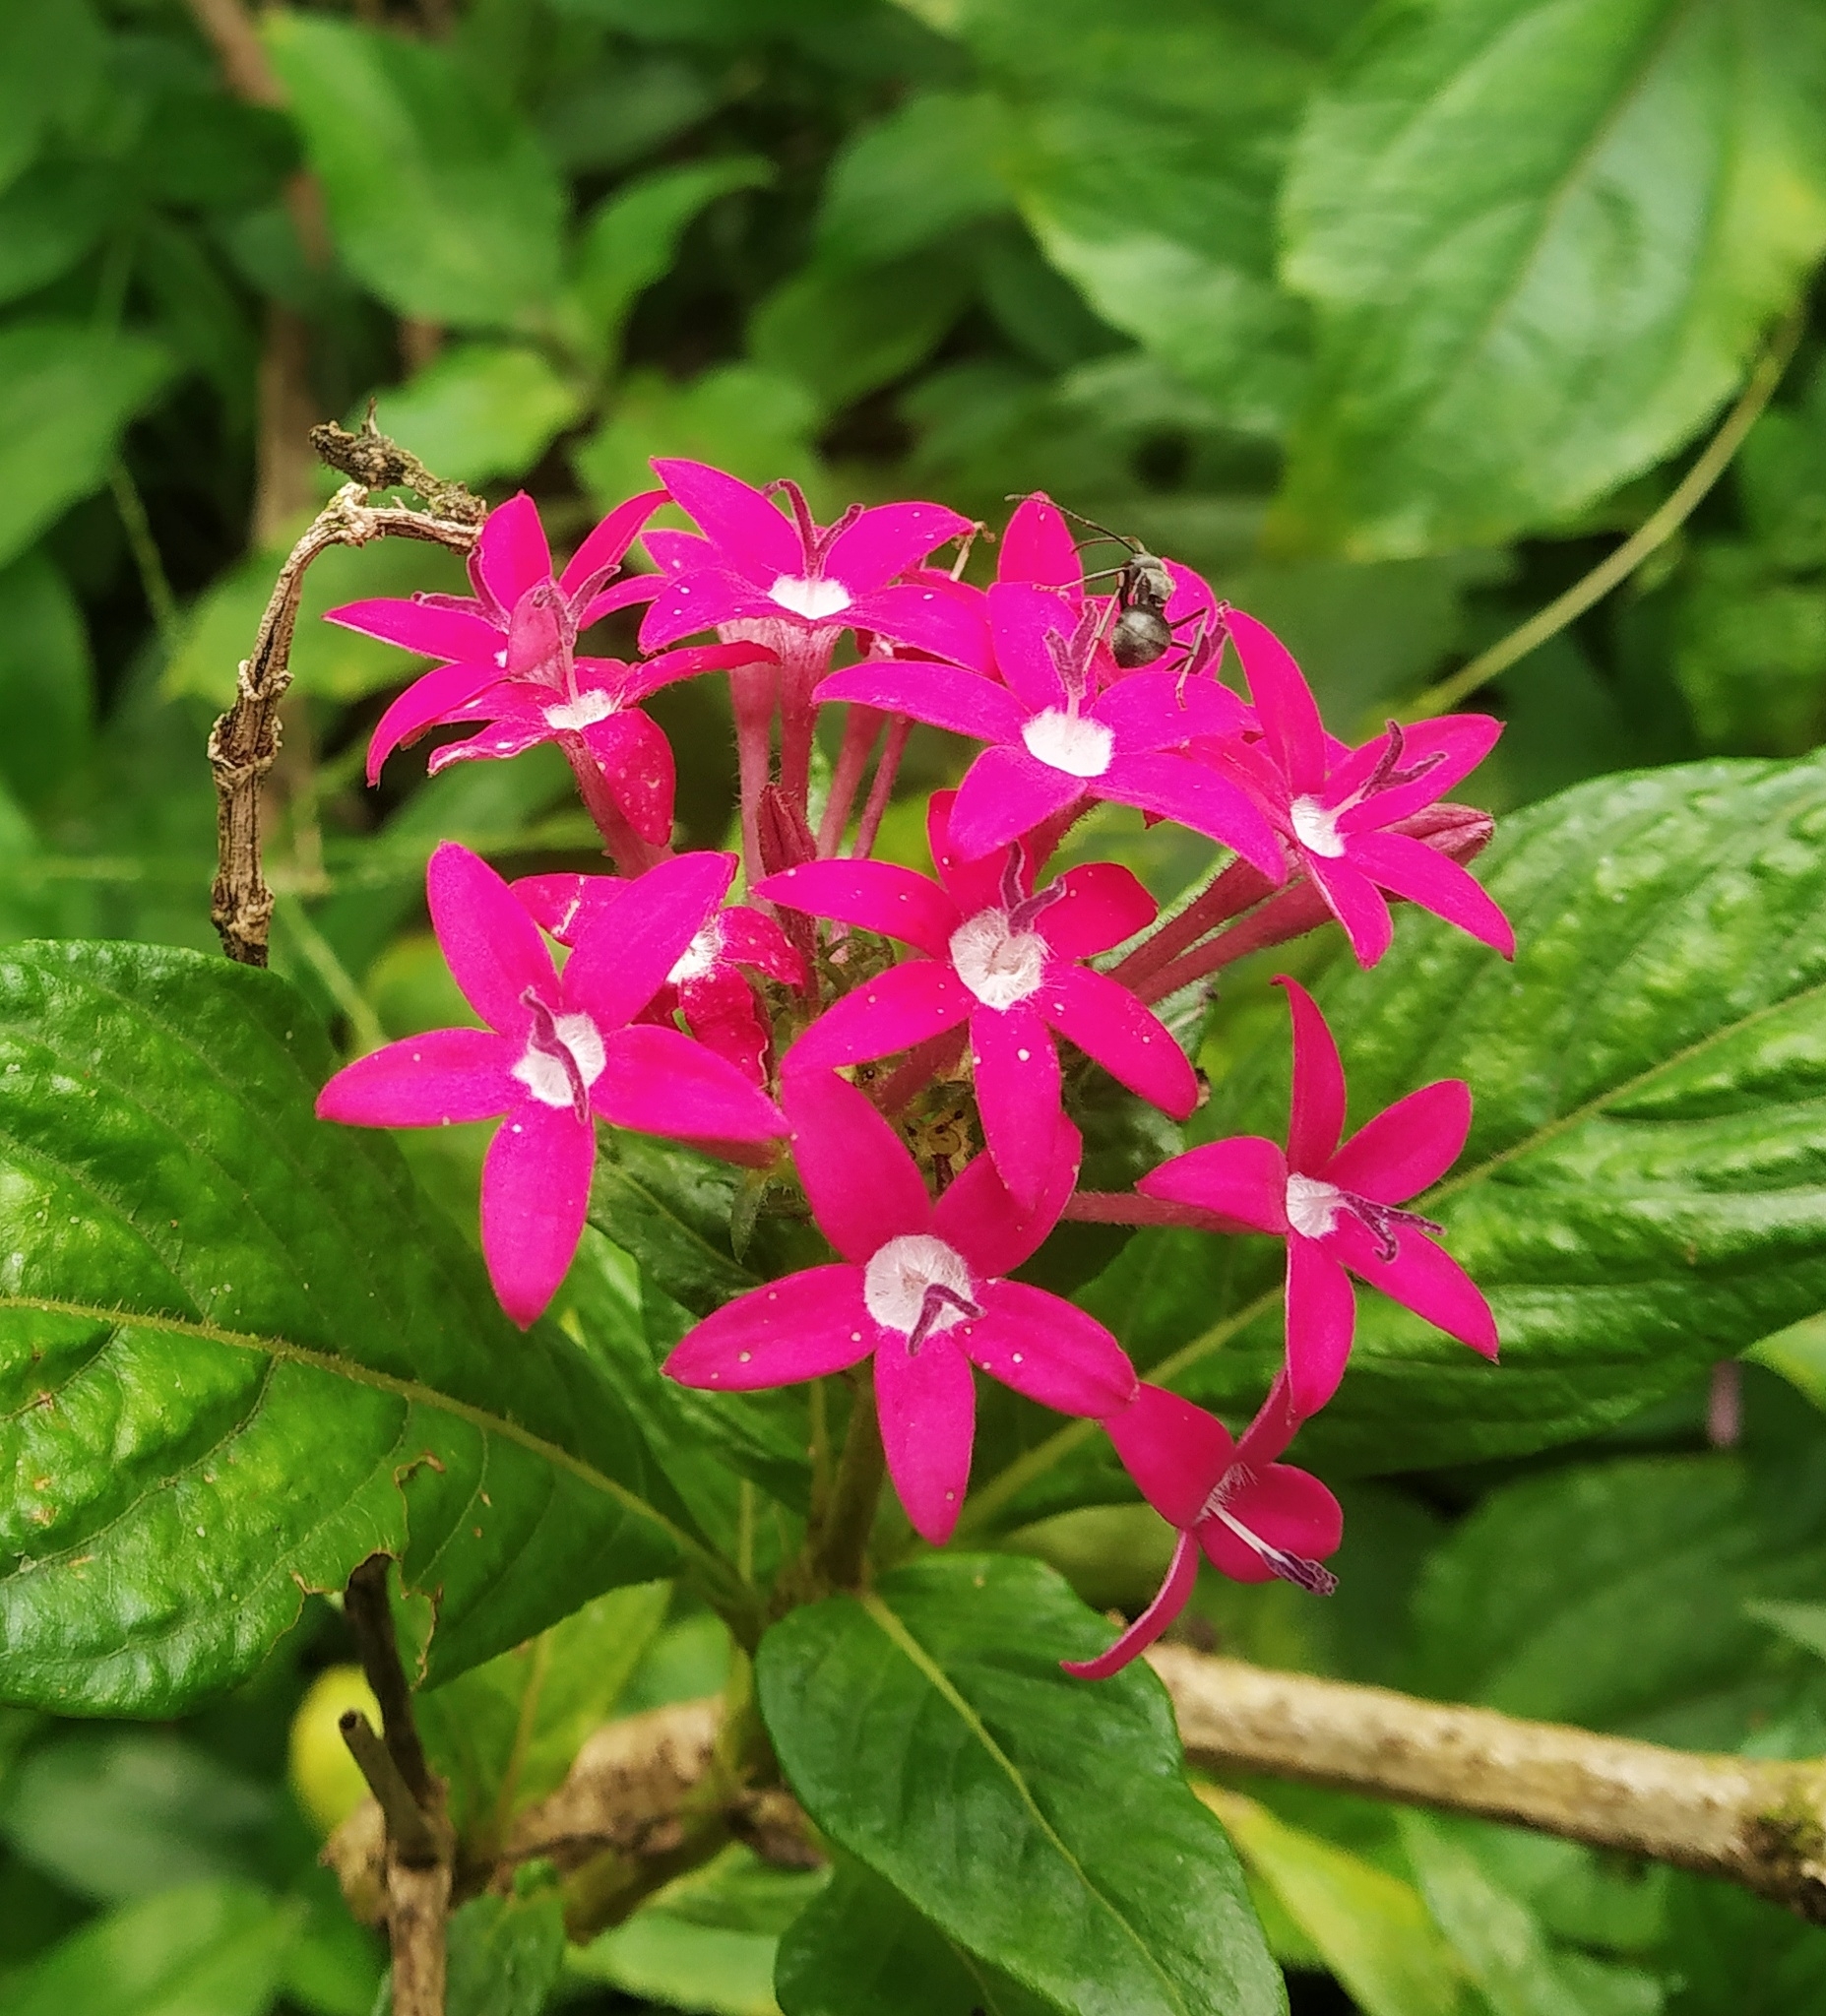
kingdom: Plantae
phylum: Tracheophyta
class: Magnoliopsida
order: Gentianales
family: Rubiaceae
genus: Pentas
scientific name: Pentas lanceolata
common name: Egyptian starcluster
